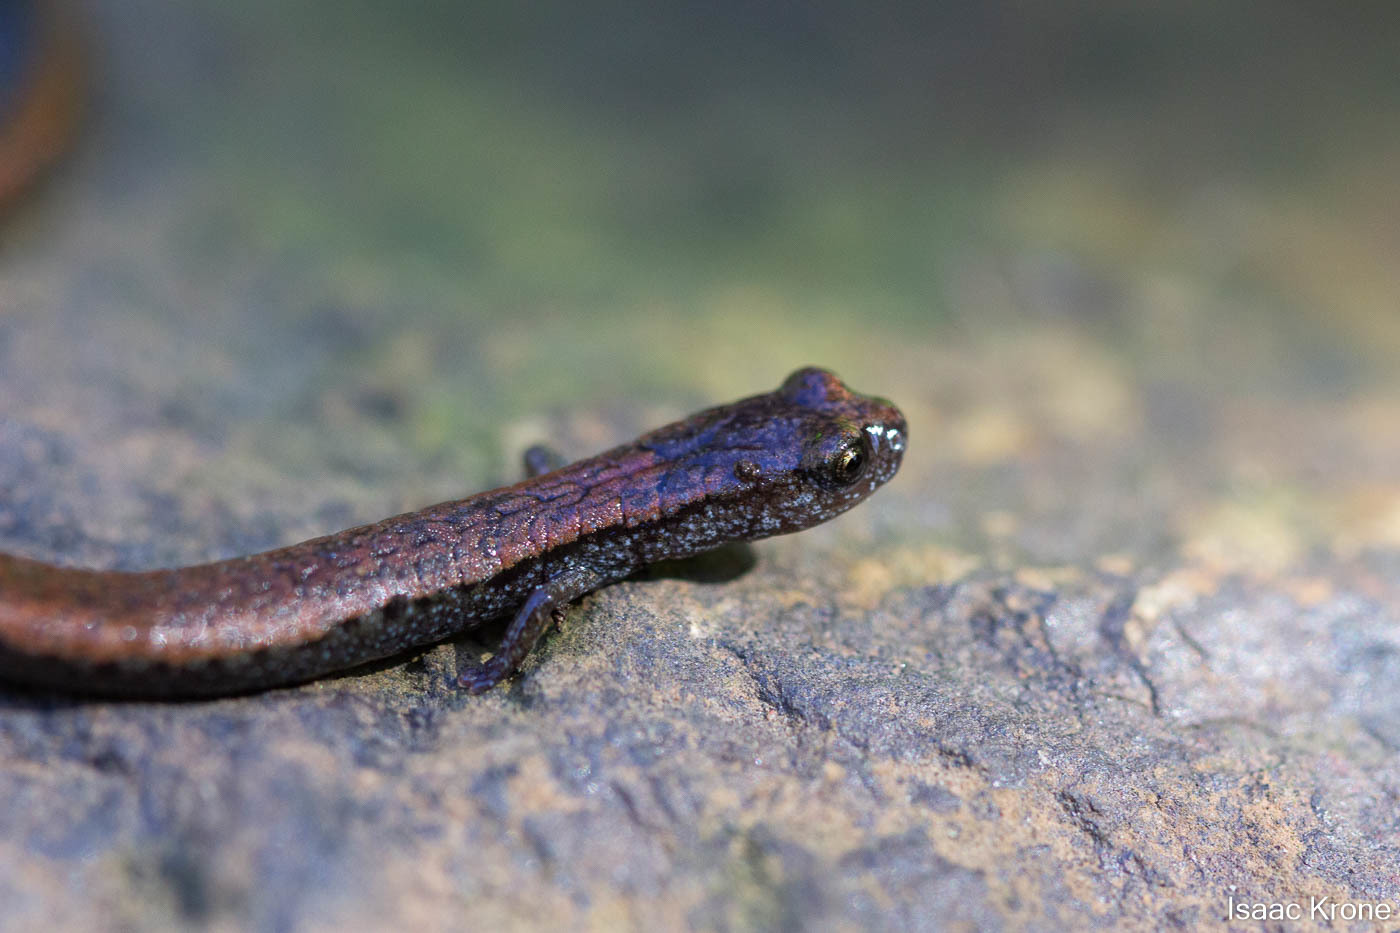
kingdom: Animalia
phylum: Chordata
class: Amphibia
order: Caudata
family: Plethodontidae
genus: Batrachoseps
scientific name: Batrachoseps attenuatus
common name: California slender salamander
